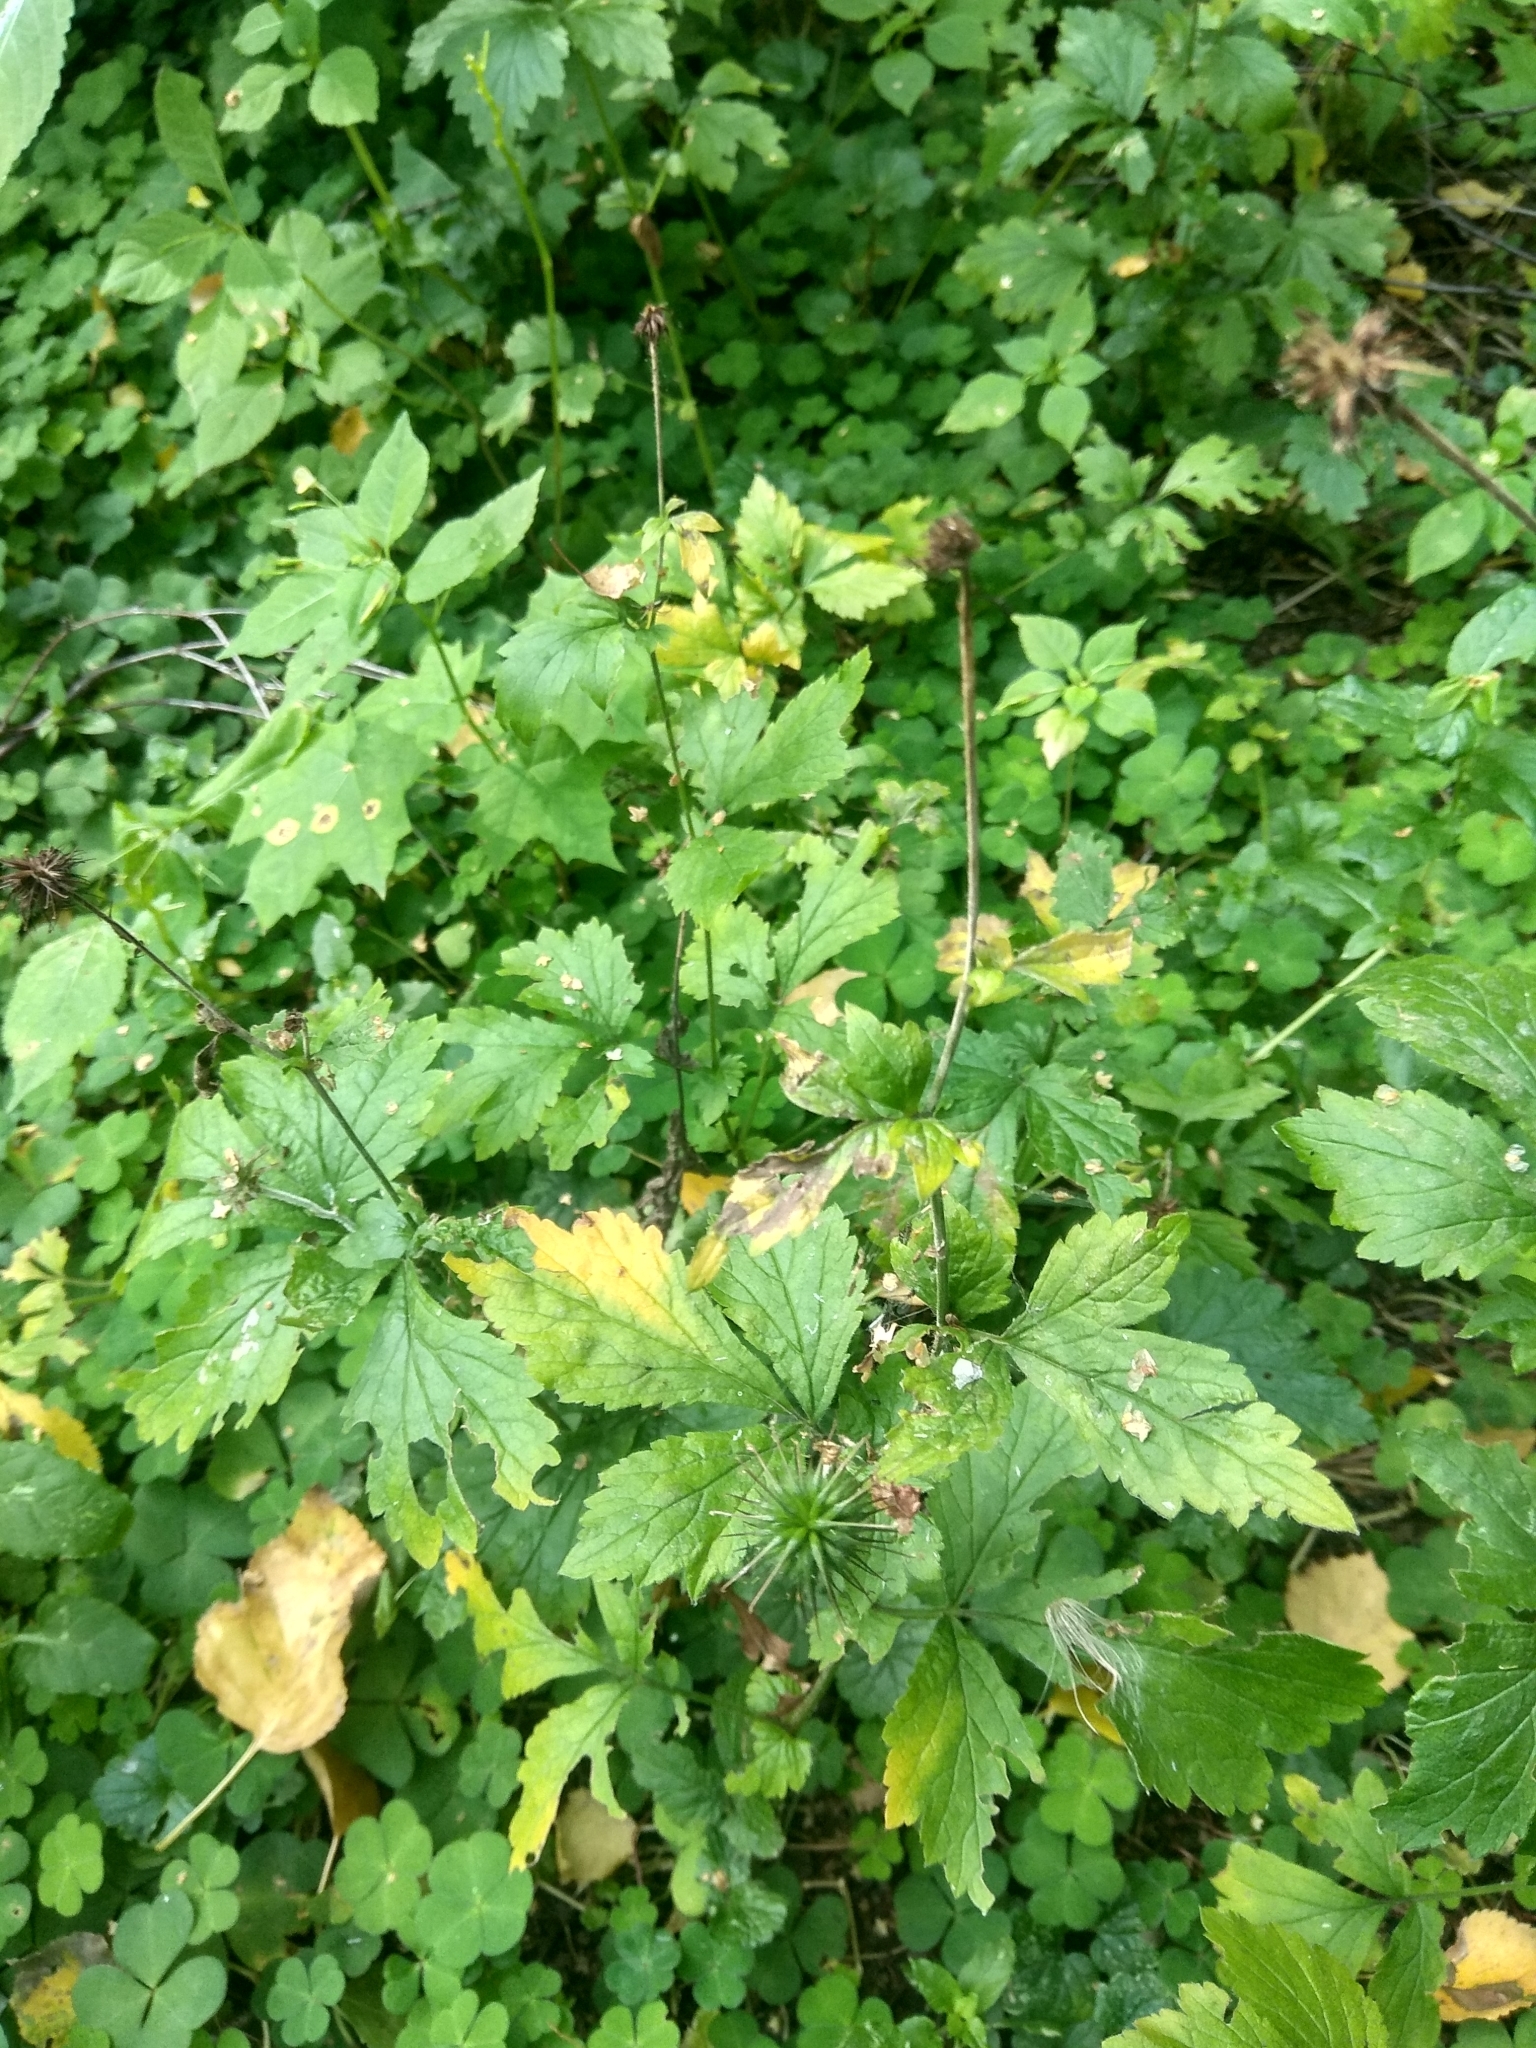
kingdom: Plantae
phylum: Tracheophyta
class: Magnoliopsida
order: Rosales
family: Rosaceae
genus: Geum
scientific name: Geum urbanum
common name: Wood avens
